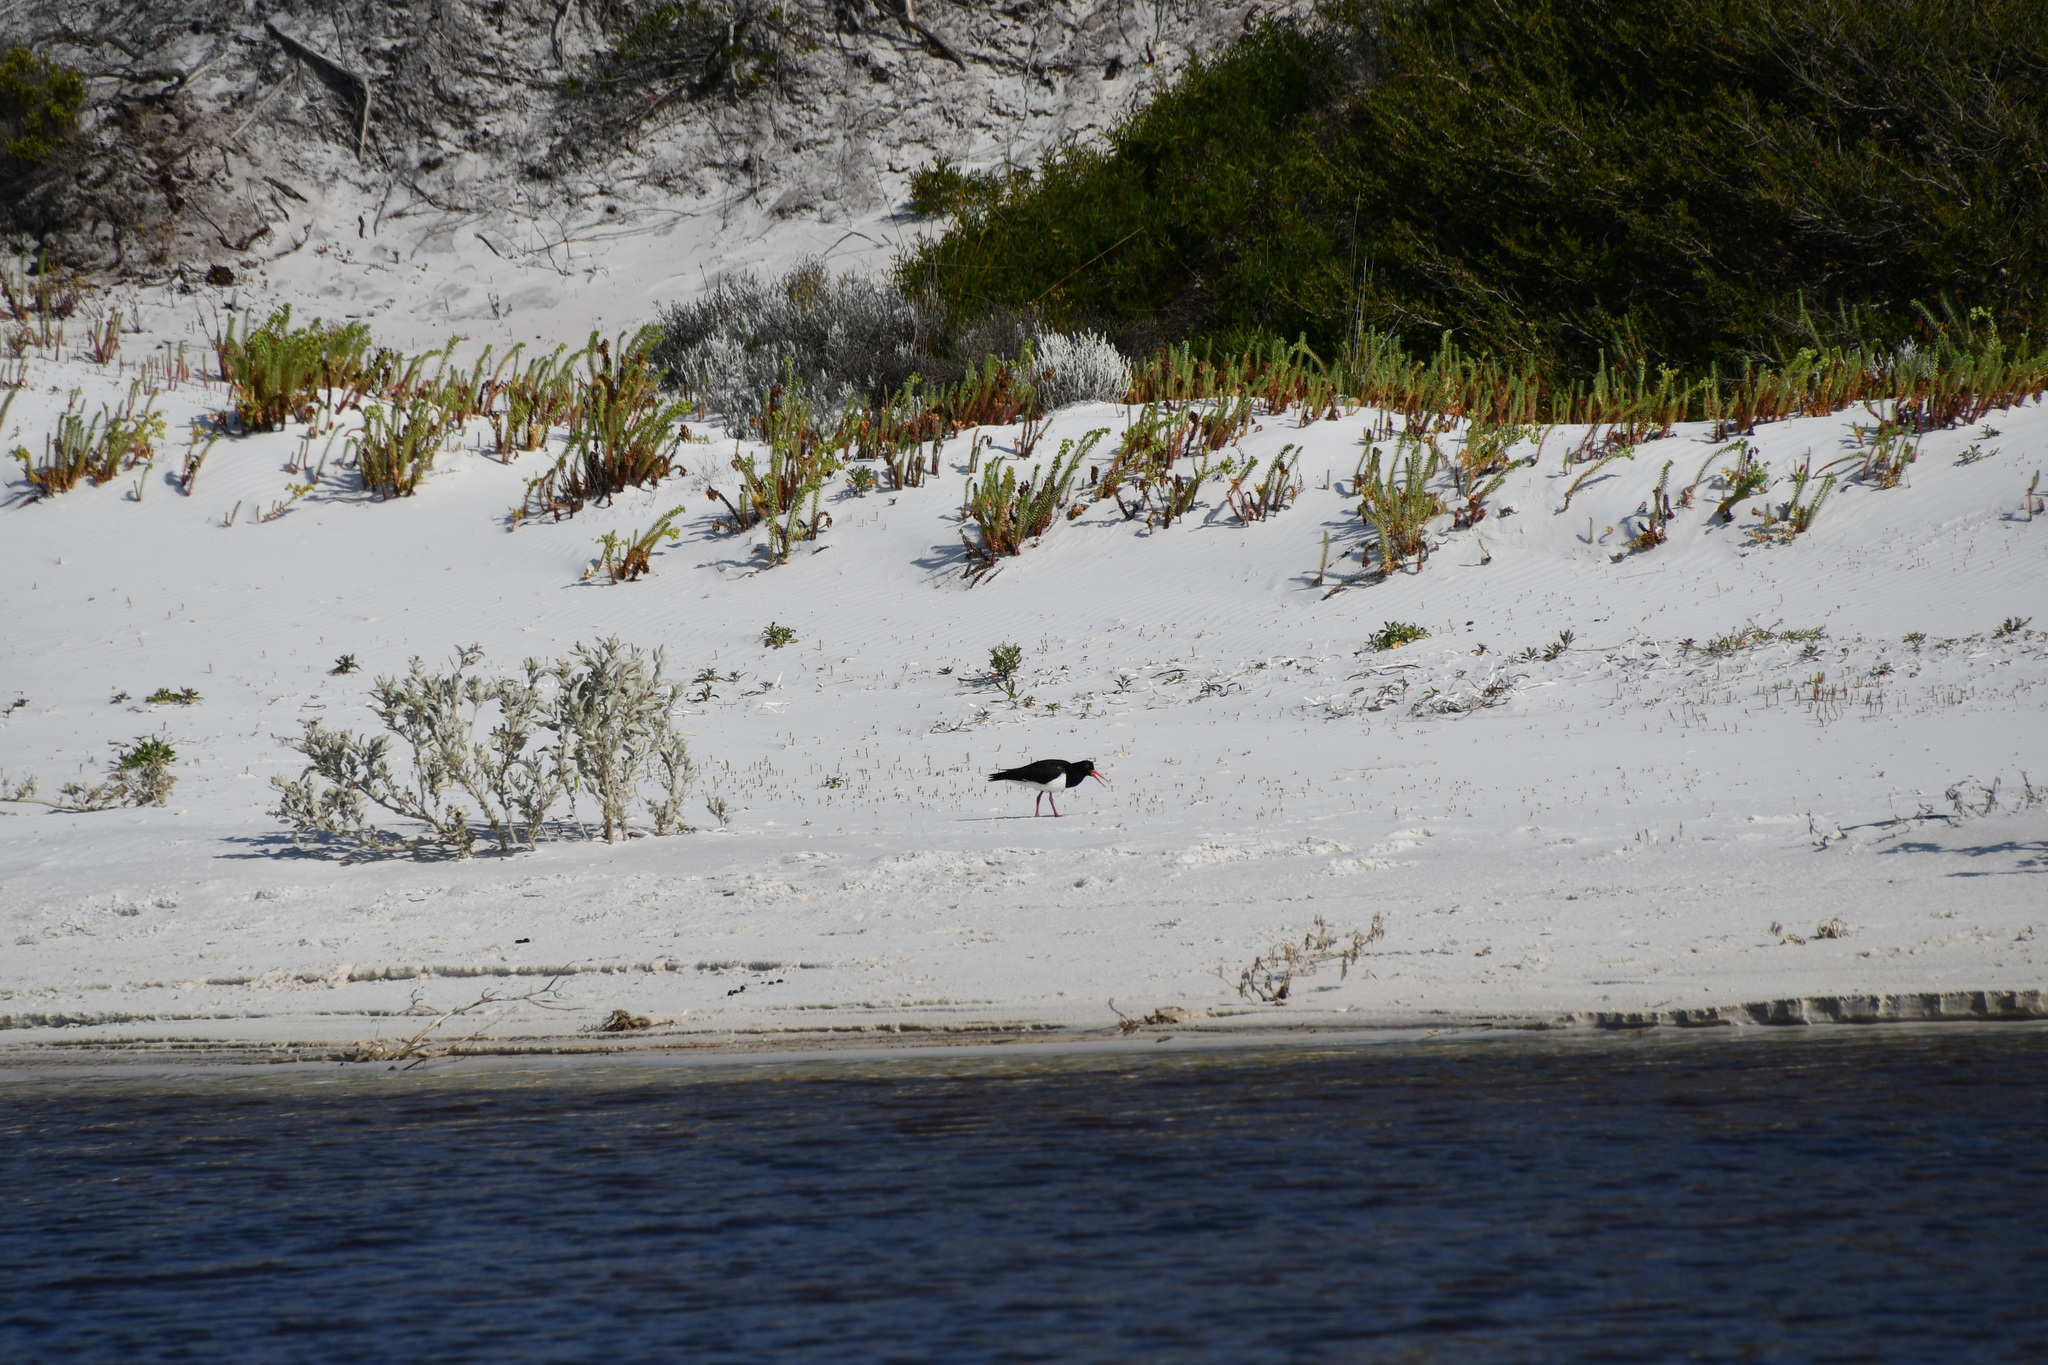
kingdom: Animalia
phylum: Chordata
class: Aves
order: Charadriiformes
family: Haematopodidae
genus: Haematopus
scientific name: Haematopus longirostris
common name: Pied oystercatcher
